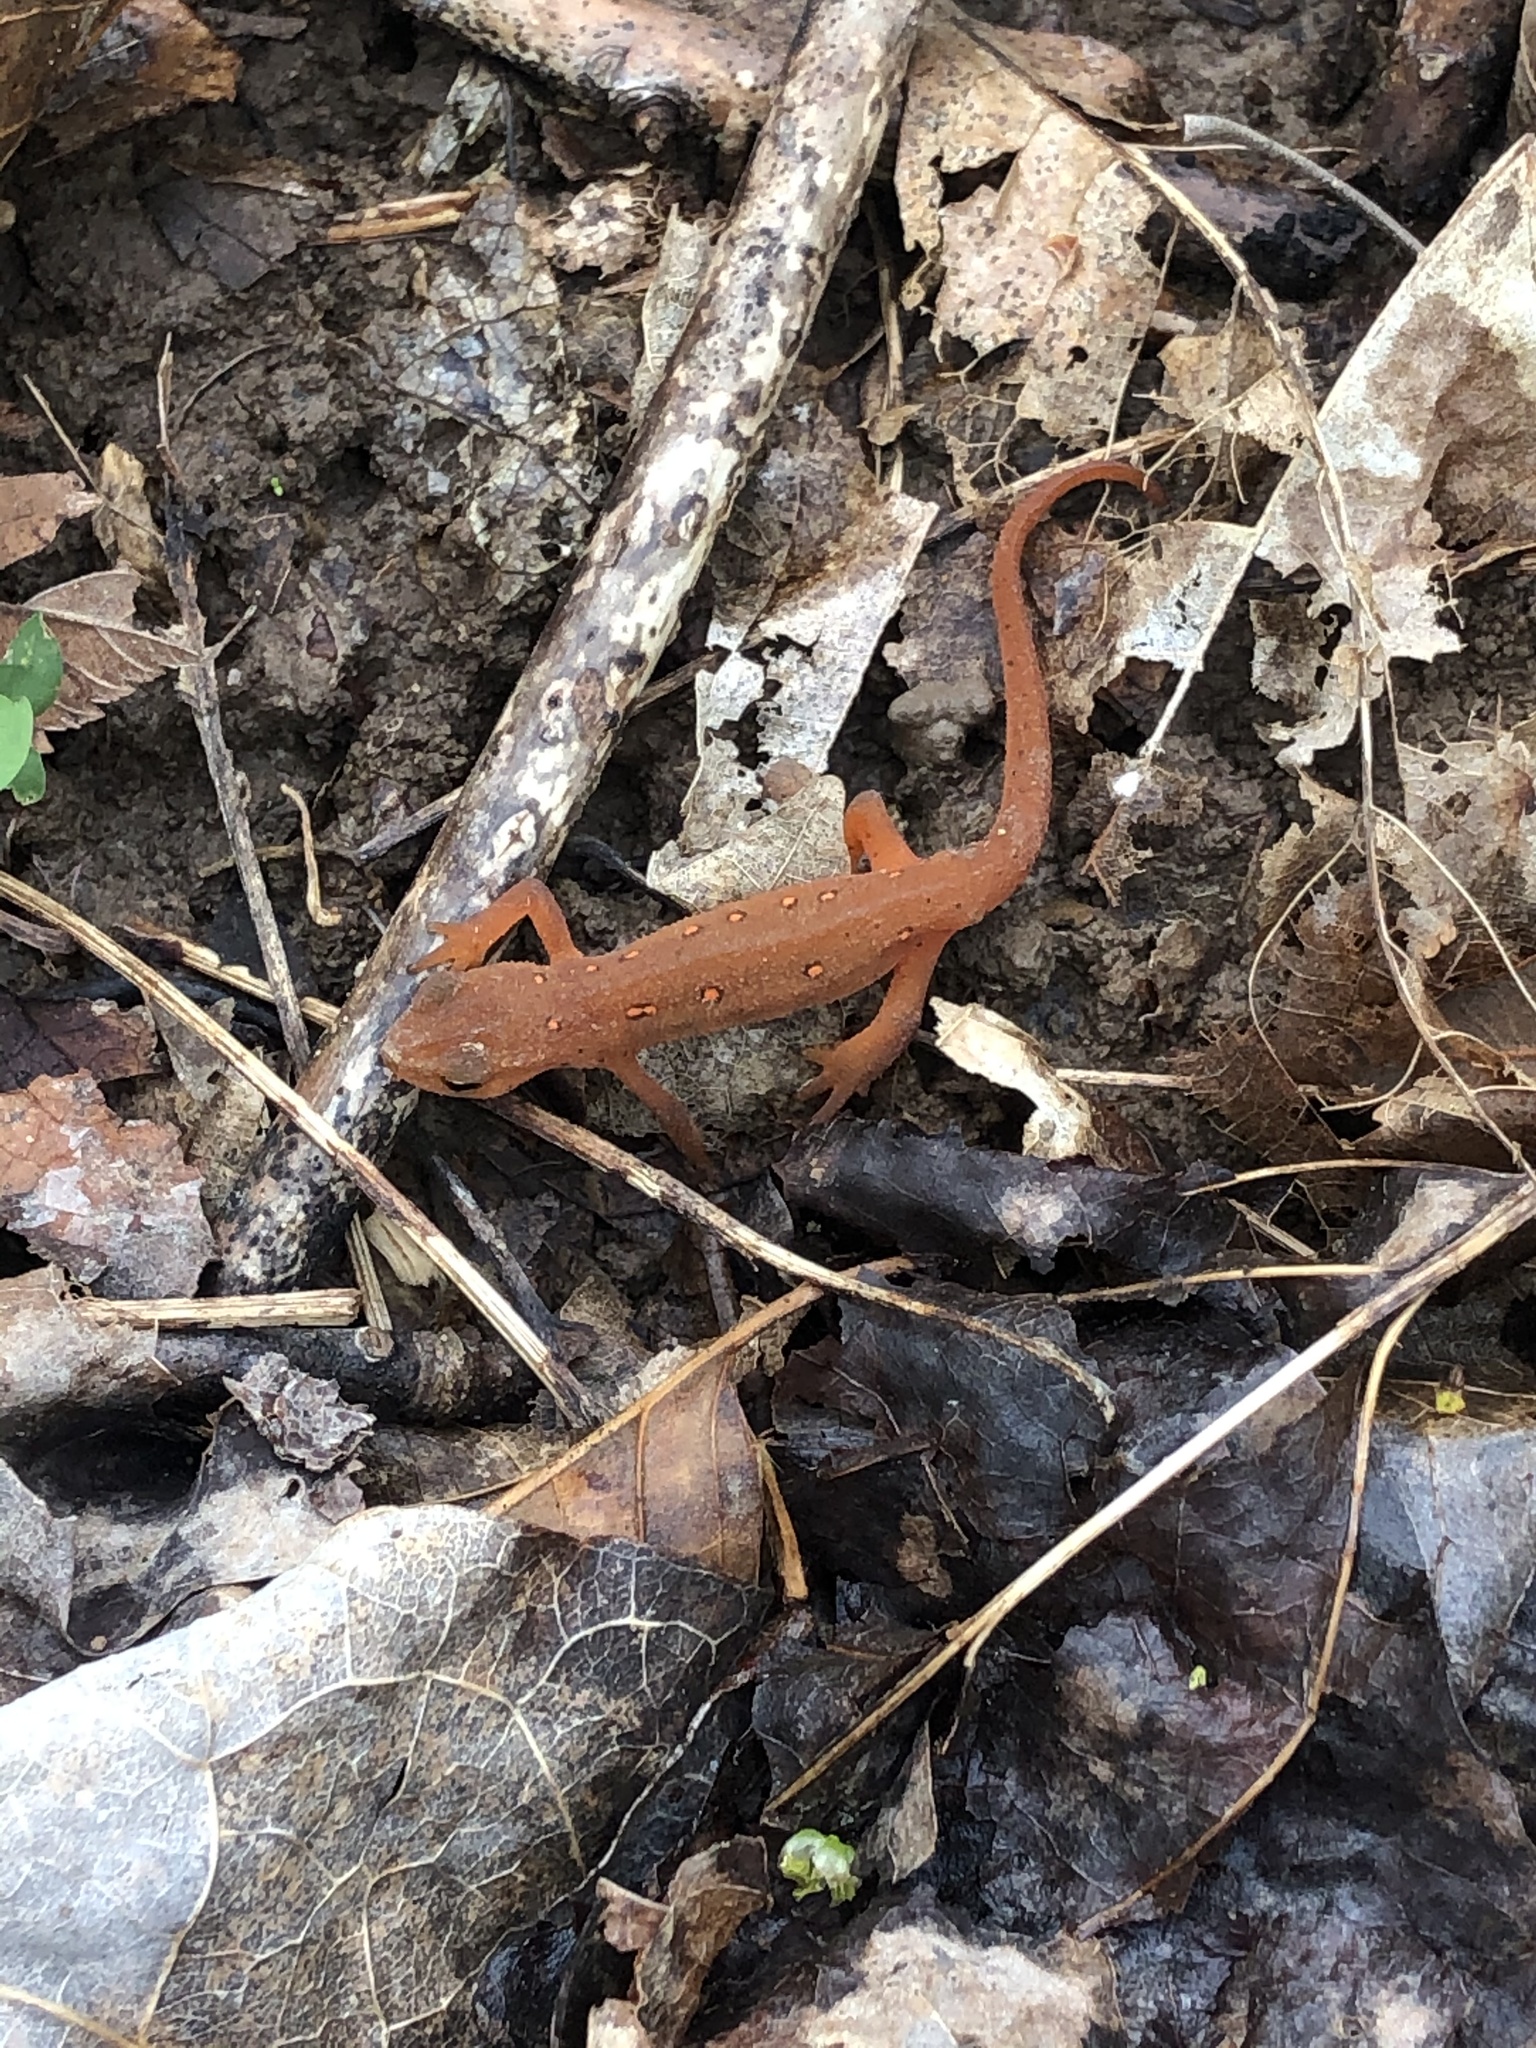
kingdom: Animalia
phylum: Chordata
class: Amphibia
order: Caudata
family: Salamandridae
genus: Notophthalmus
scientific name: Notophthalmus viridescens
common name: Eastern newt
